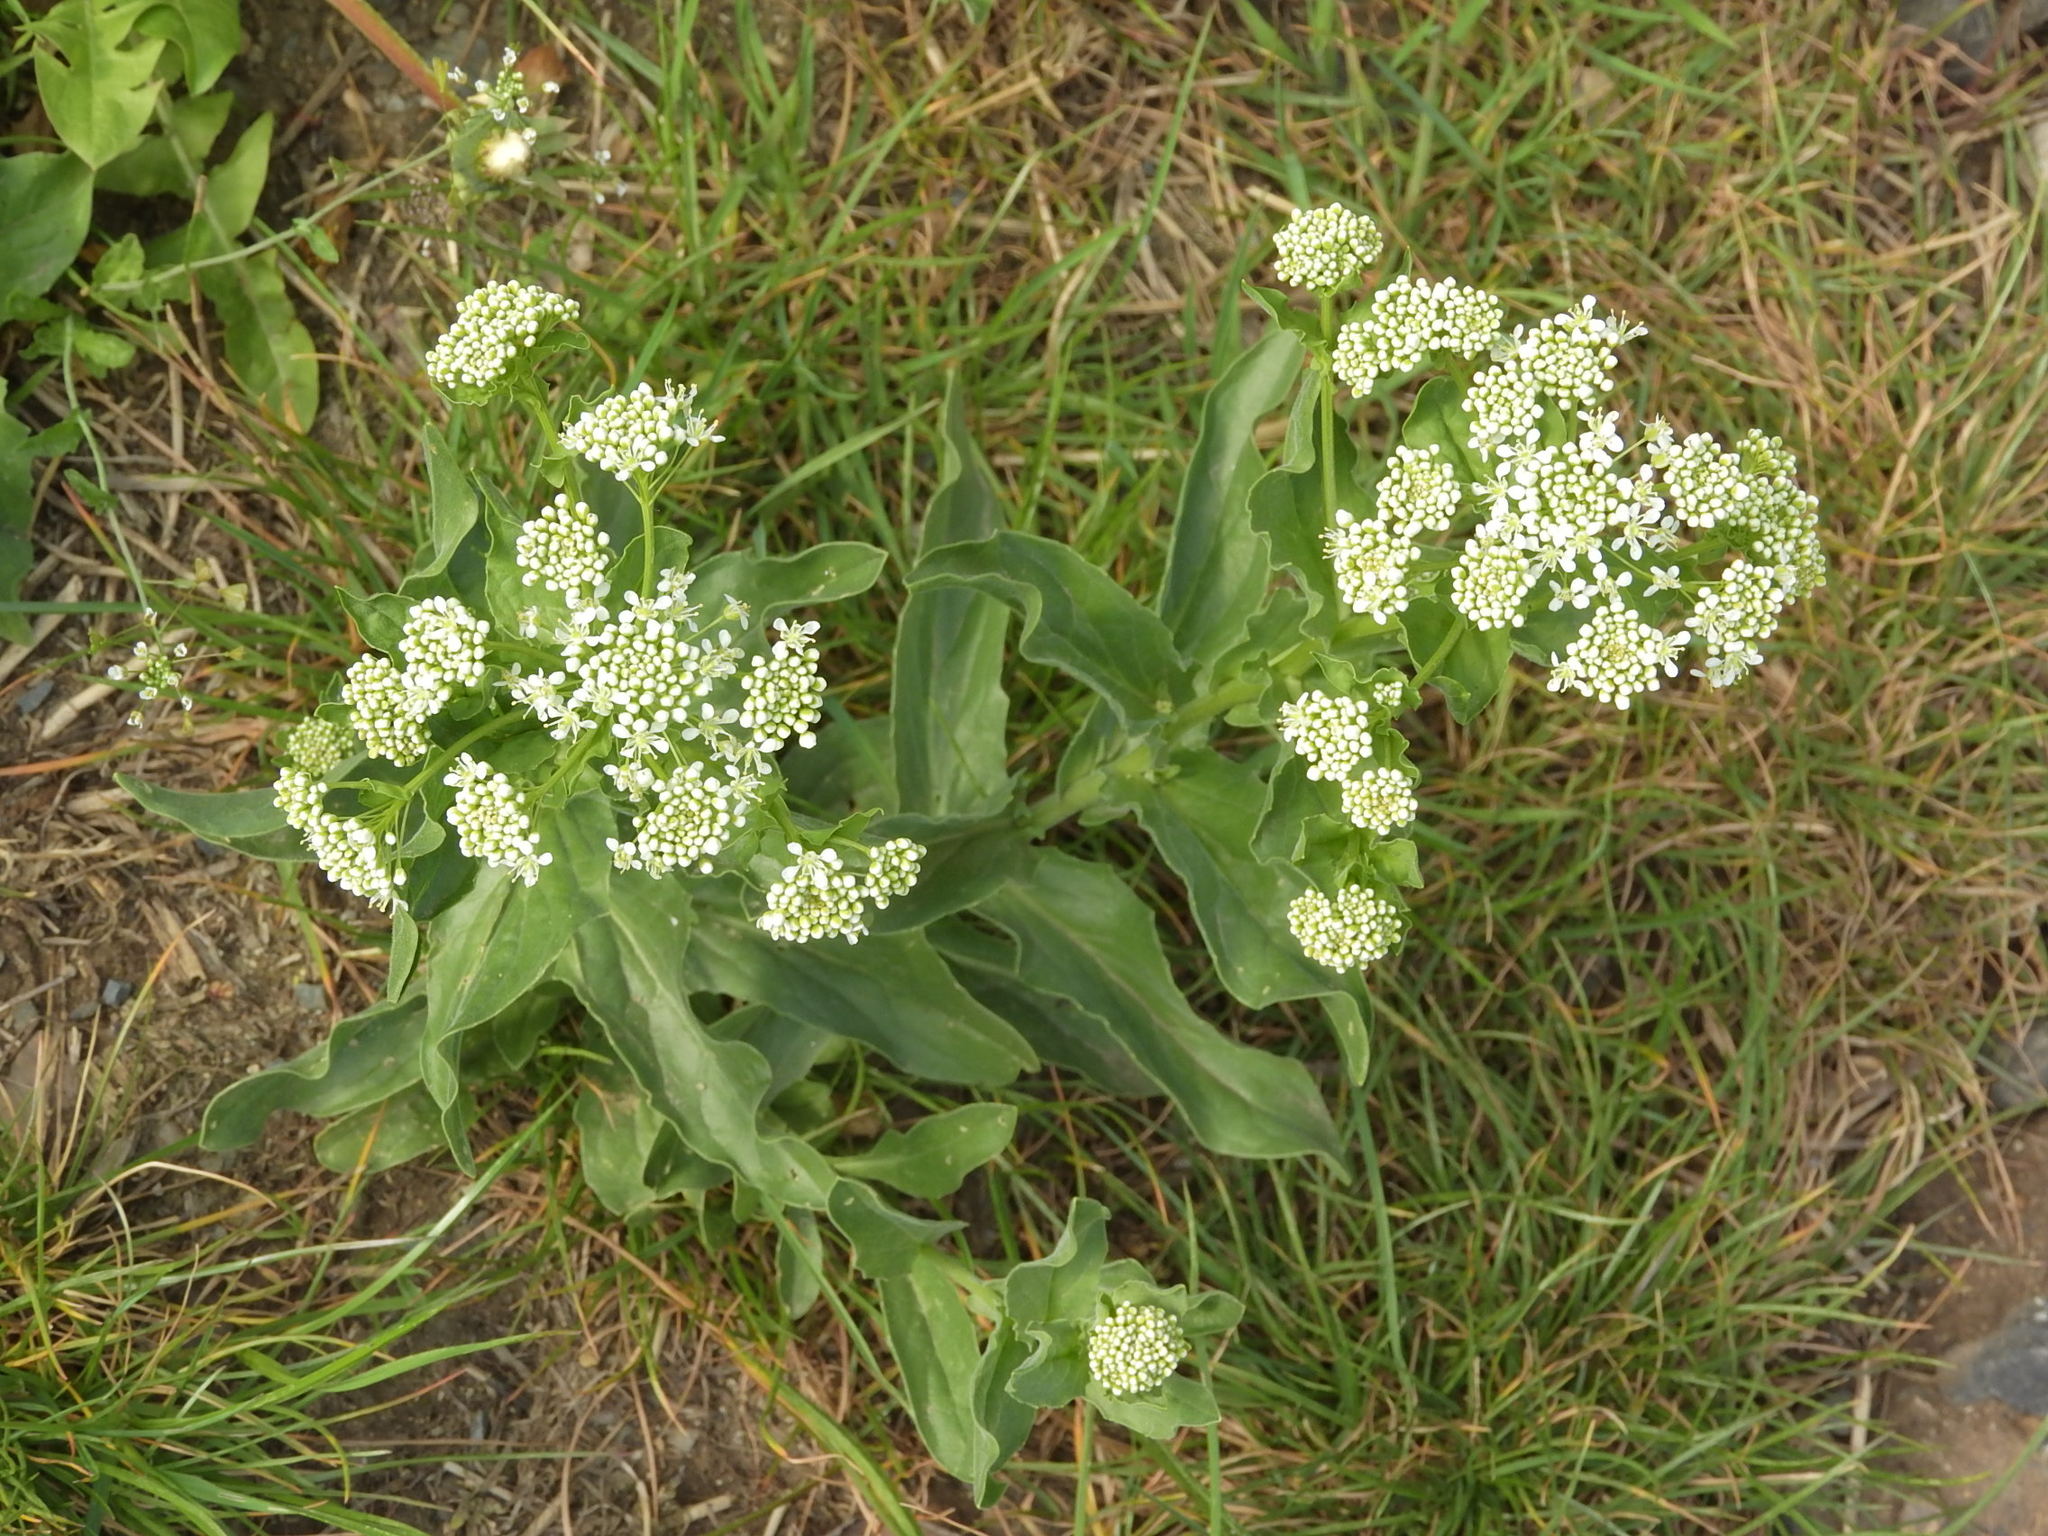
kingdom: Plantae
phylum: Tracheophyta
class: Magnoliopsida
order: Brassicales
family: Brassicaceae
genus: Lepidium
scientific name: Lepidium draba
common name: Hoary cress
